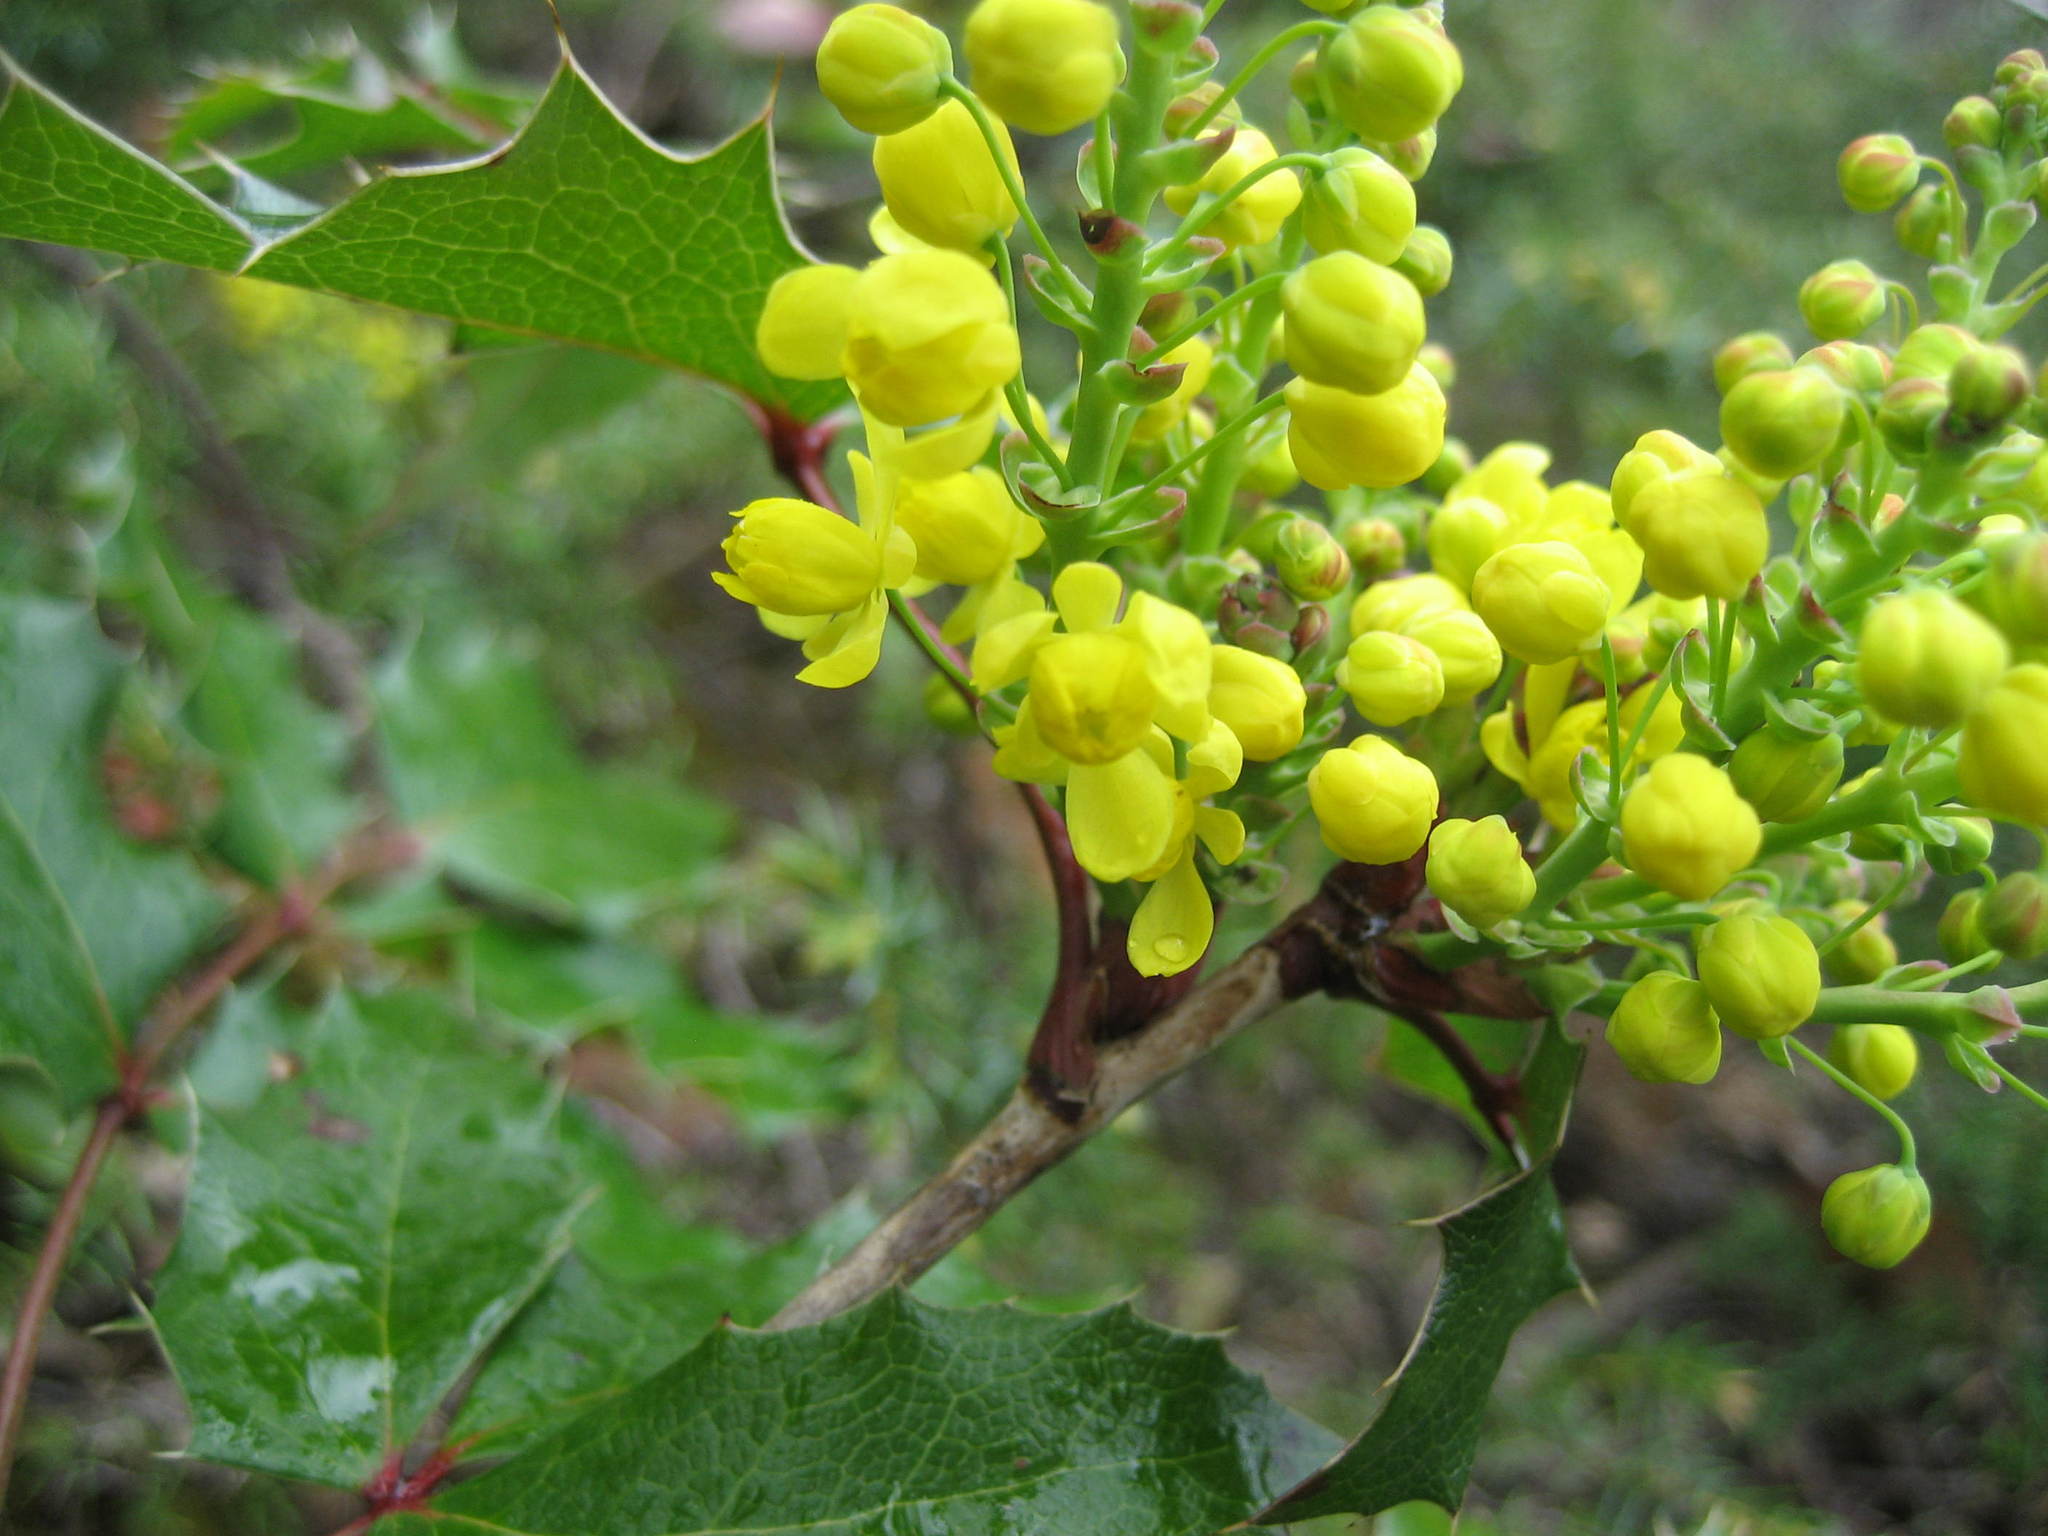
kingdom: Plantae
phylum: Tracheophyta
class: Magnoliopsida
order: Ranunculales
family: Berberidaceae
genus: Mahonia
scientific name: Mahonia aquifolium
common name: Oregon-grape
